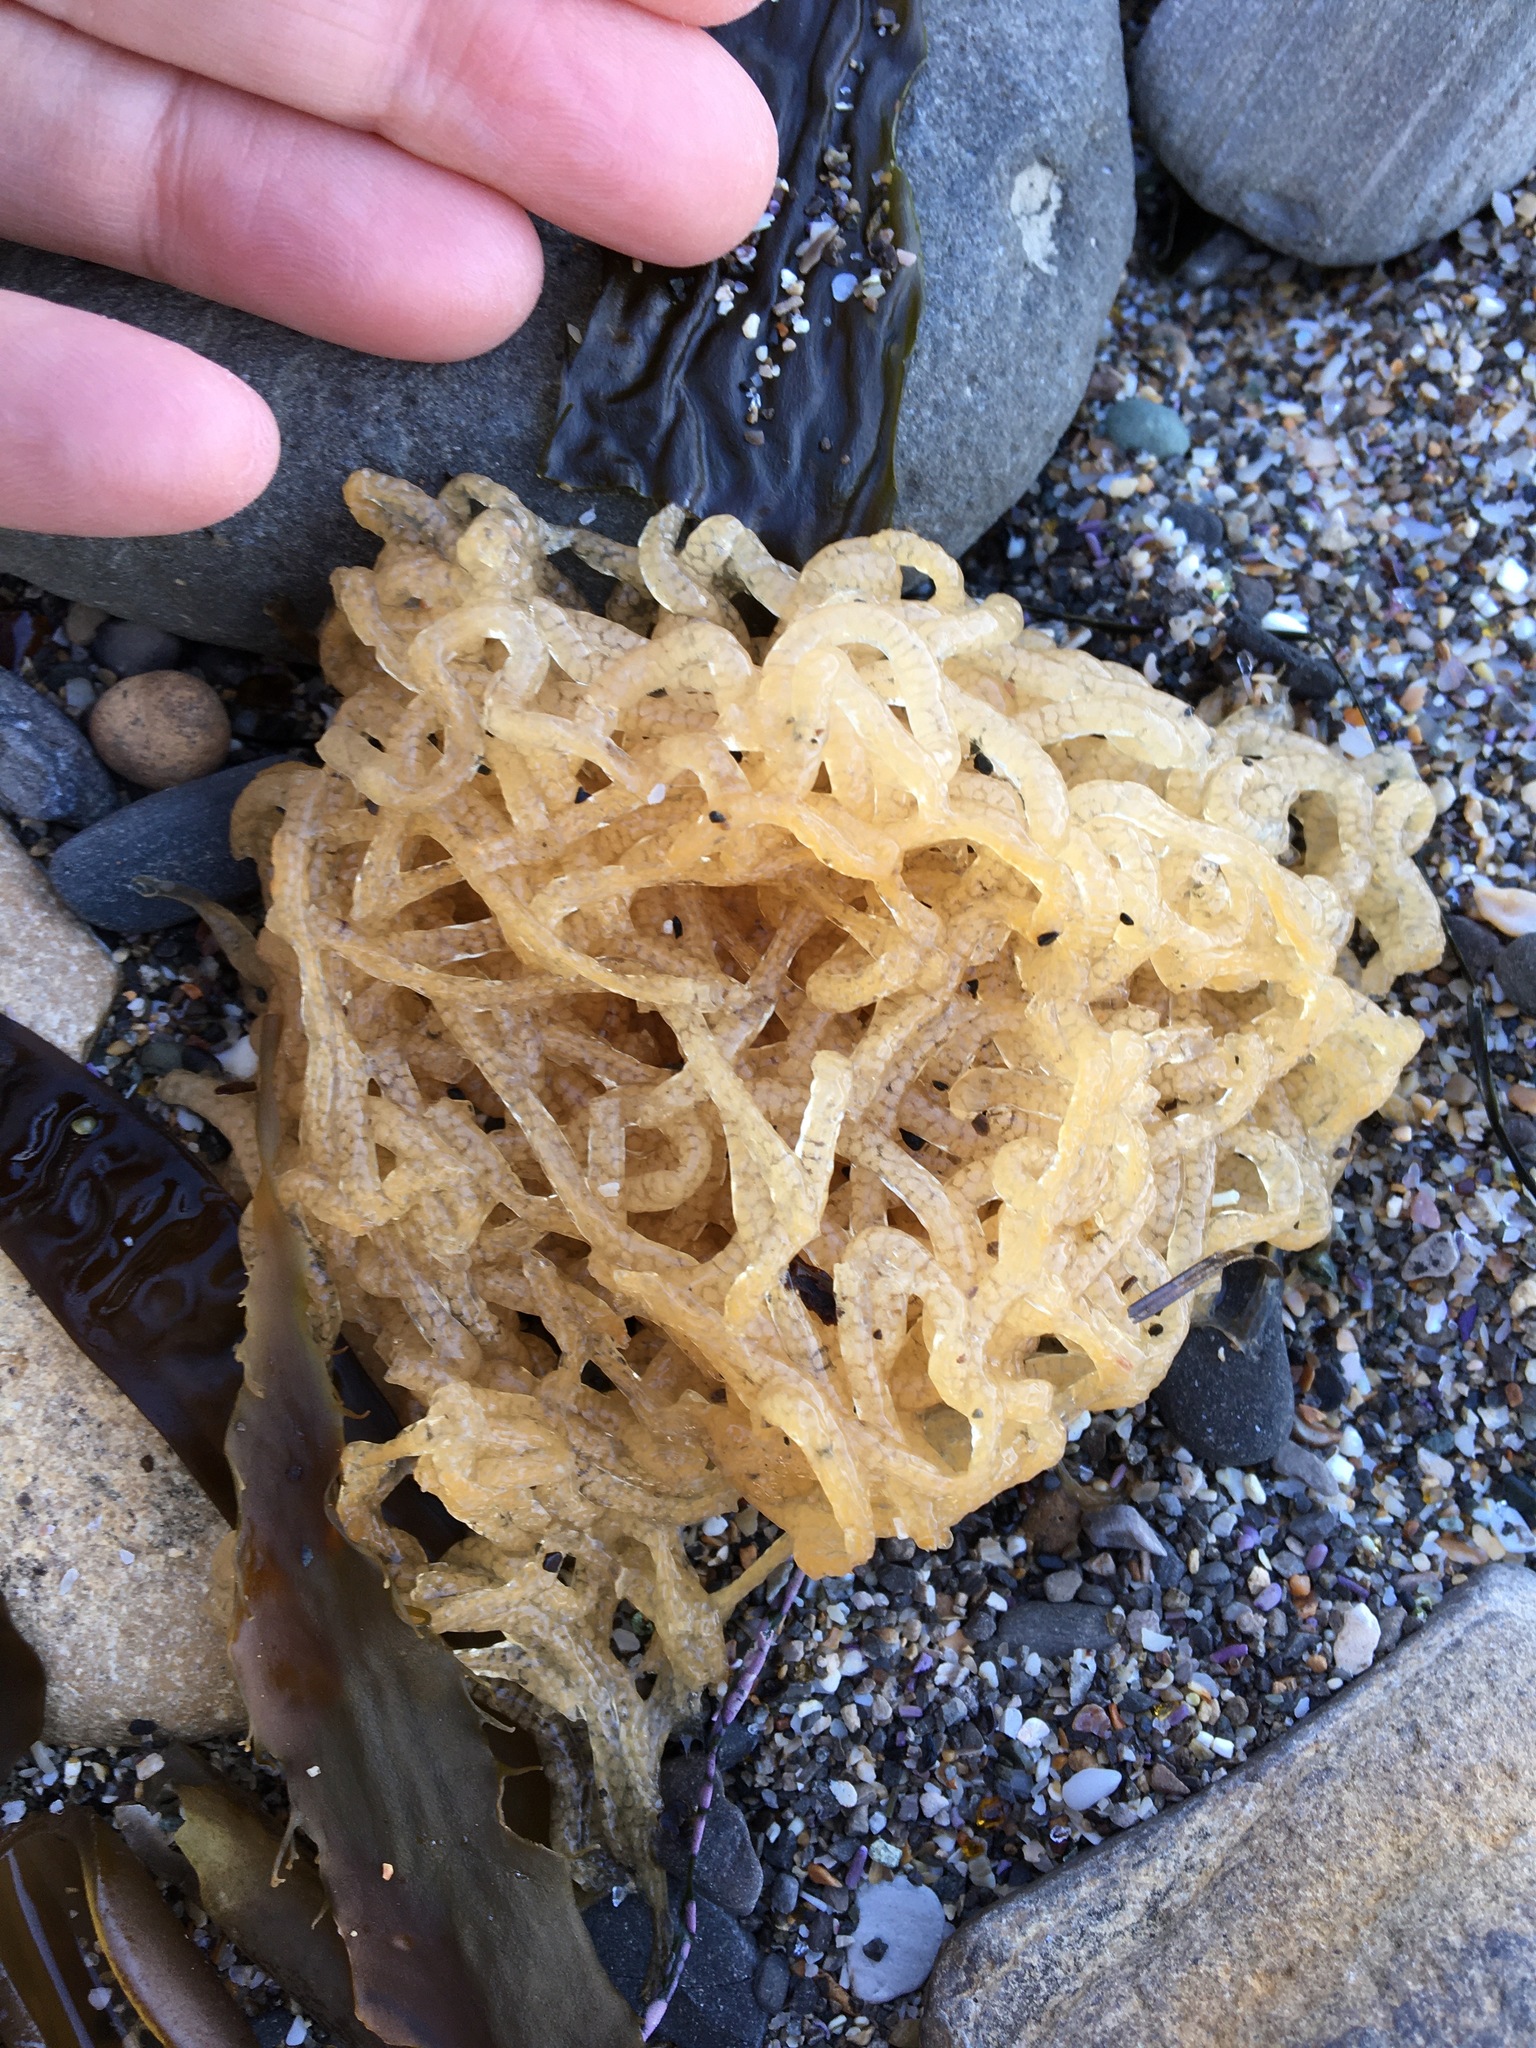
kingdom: Animalia
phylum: Mollusca
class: Gastropoda
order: Aplysiida
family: Aplysiidae
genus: Aplysia
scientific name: Aplysia californica
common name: California seahare
